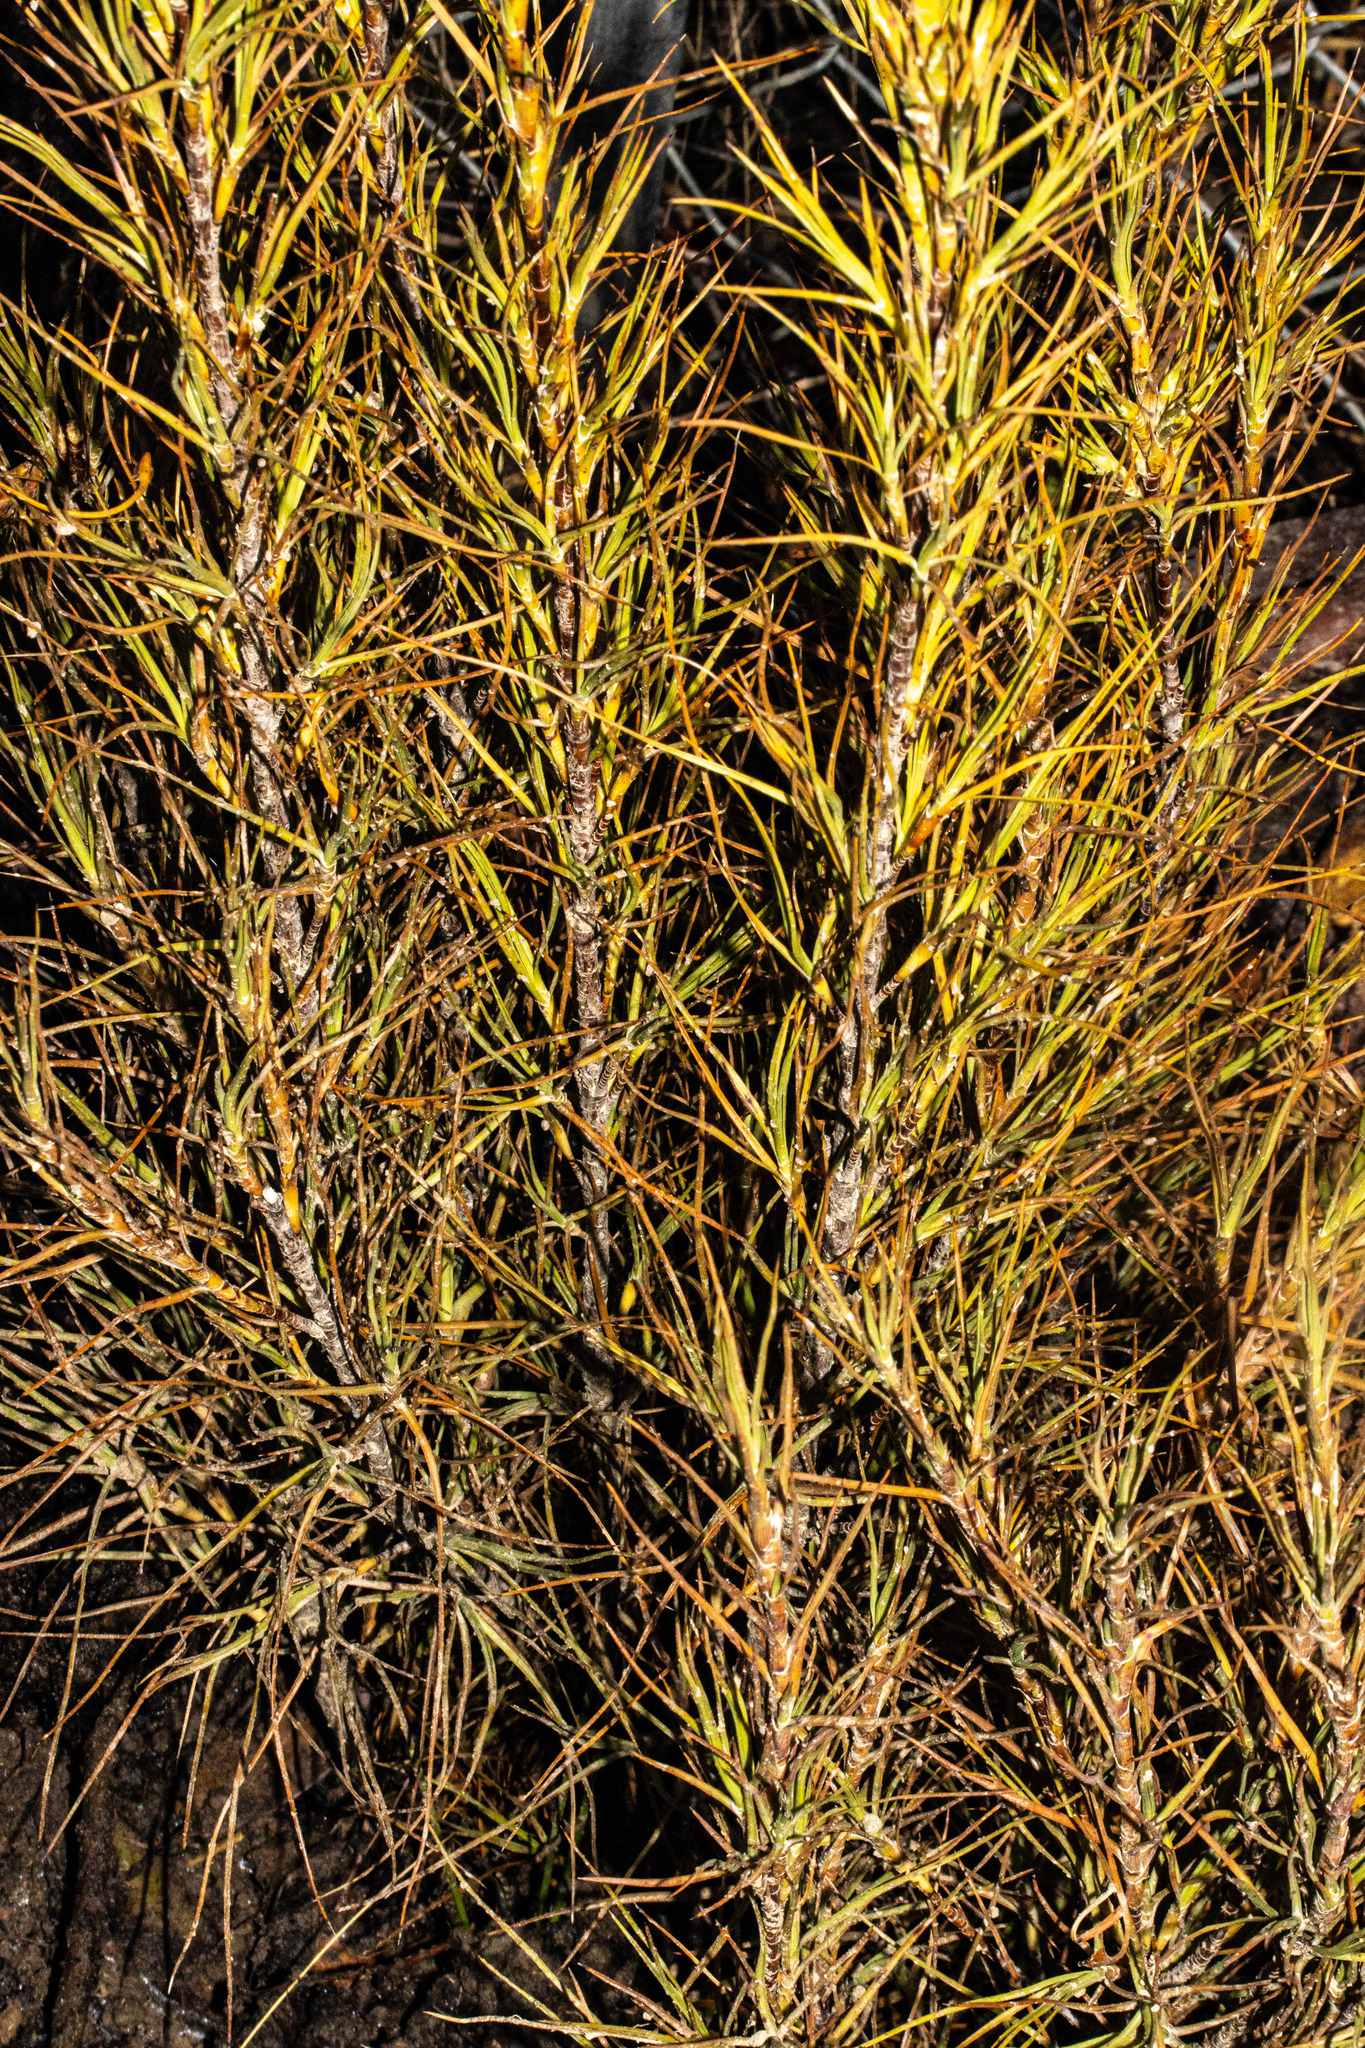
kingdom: Plantae
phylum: Tracheophyta
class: Magnoliopsida
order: Ericales
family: Ericaceae
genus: Dracophyllum
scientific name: Dracophyllum longifolium
